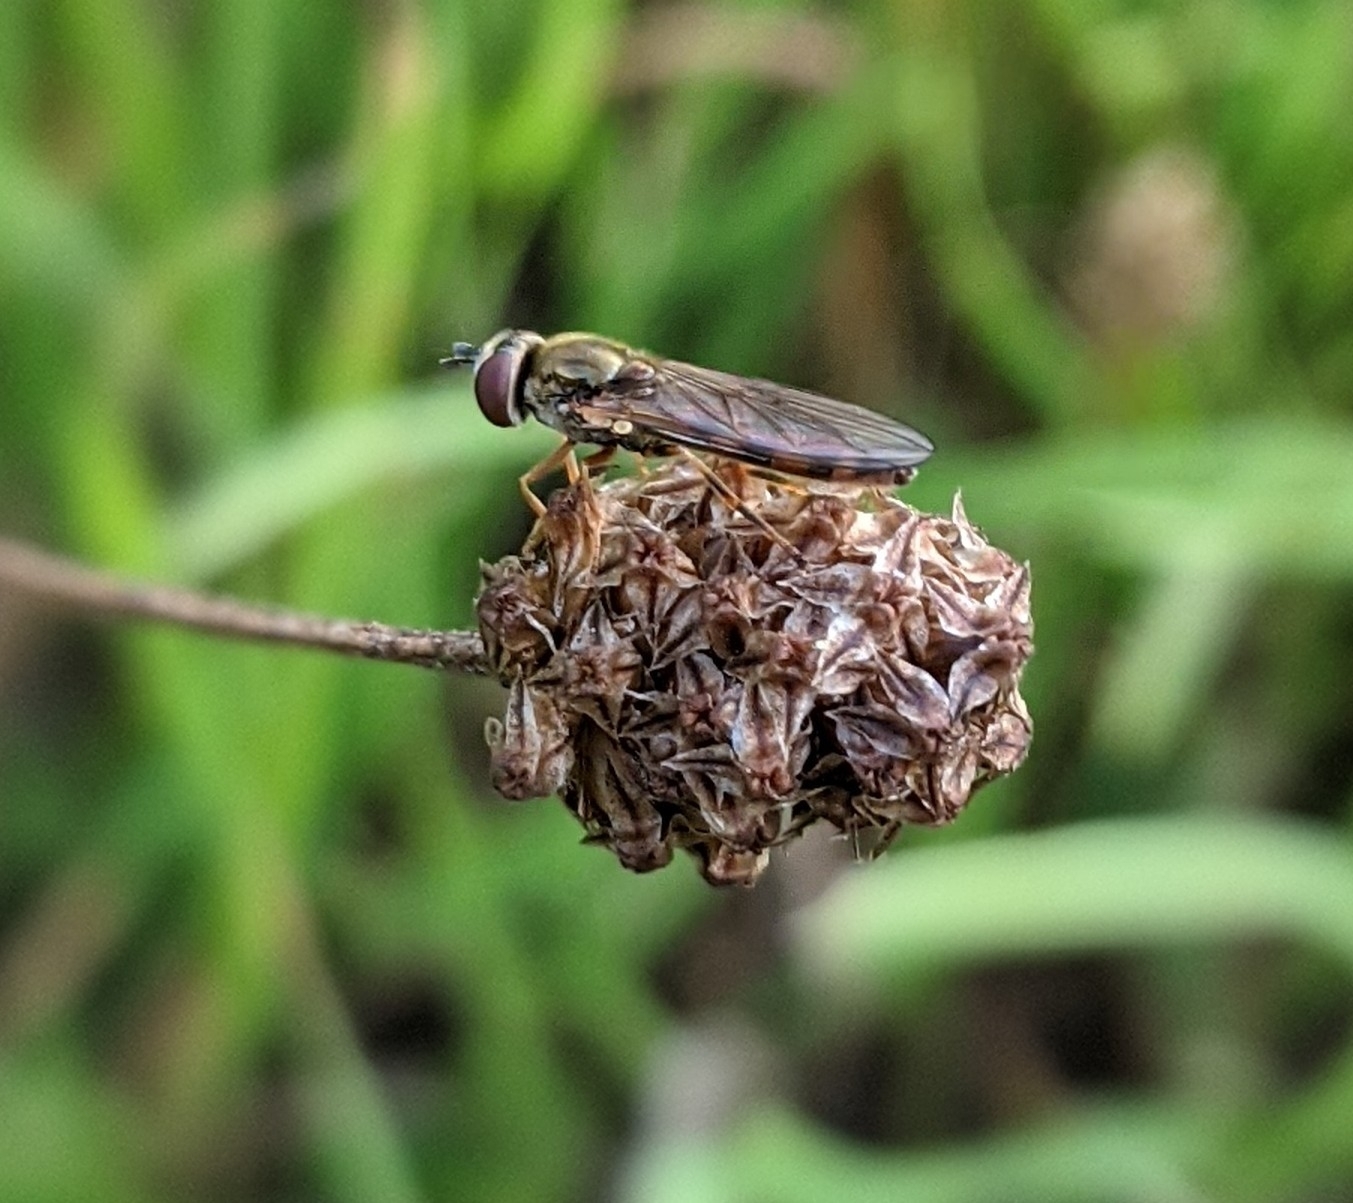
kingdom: Animalia
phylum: Arthropoda
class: Insecta
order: Diptera
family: Syrphidae
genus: Melanostoma
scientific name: Melanostoma scalare
